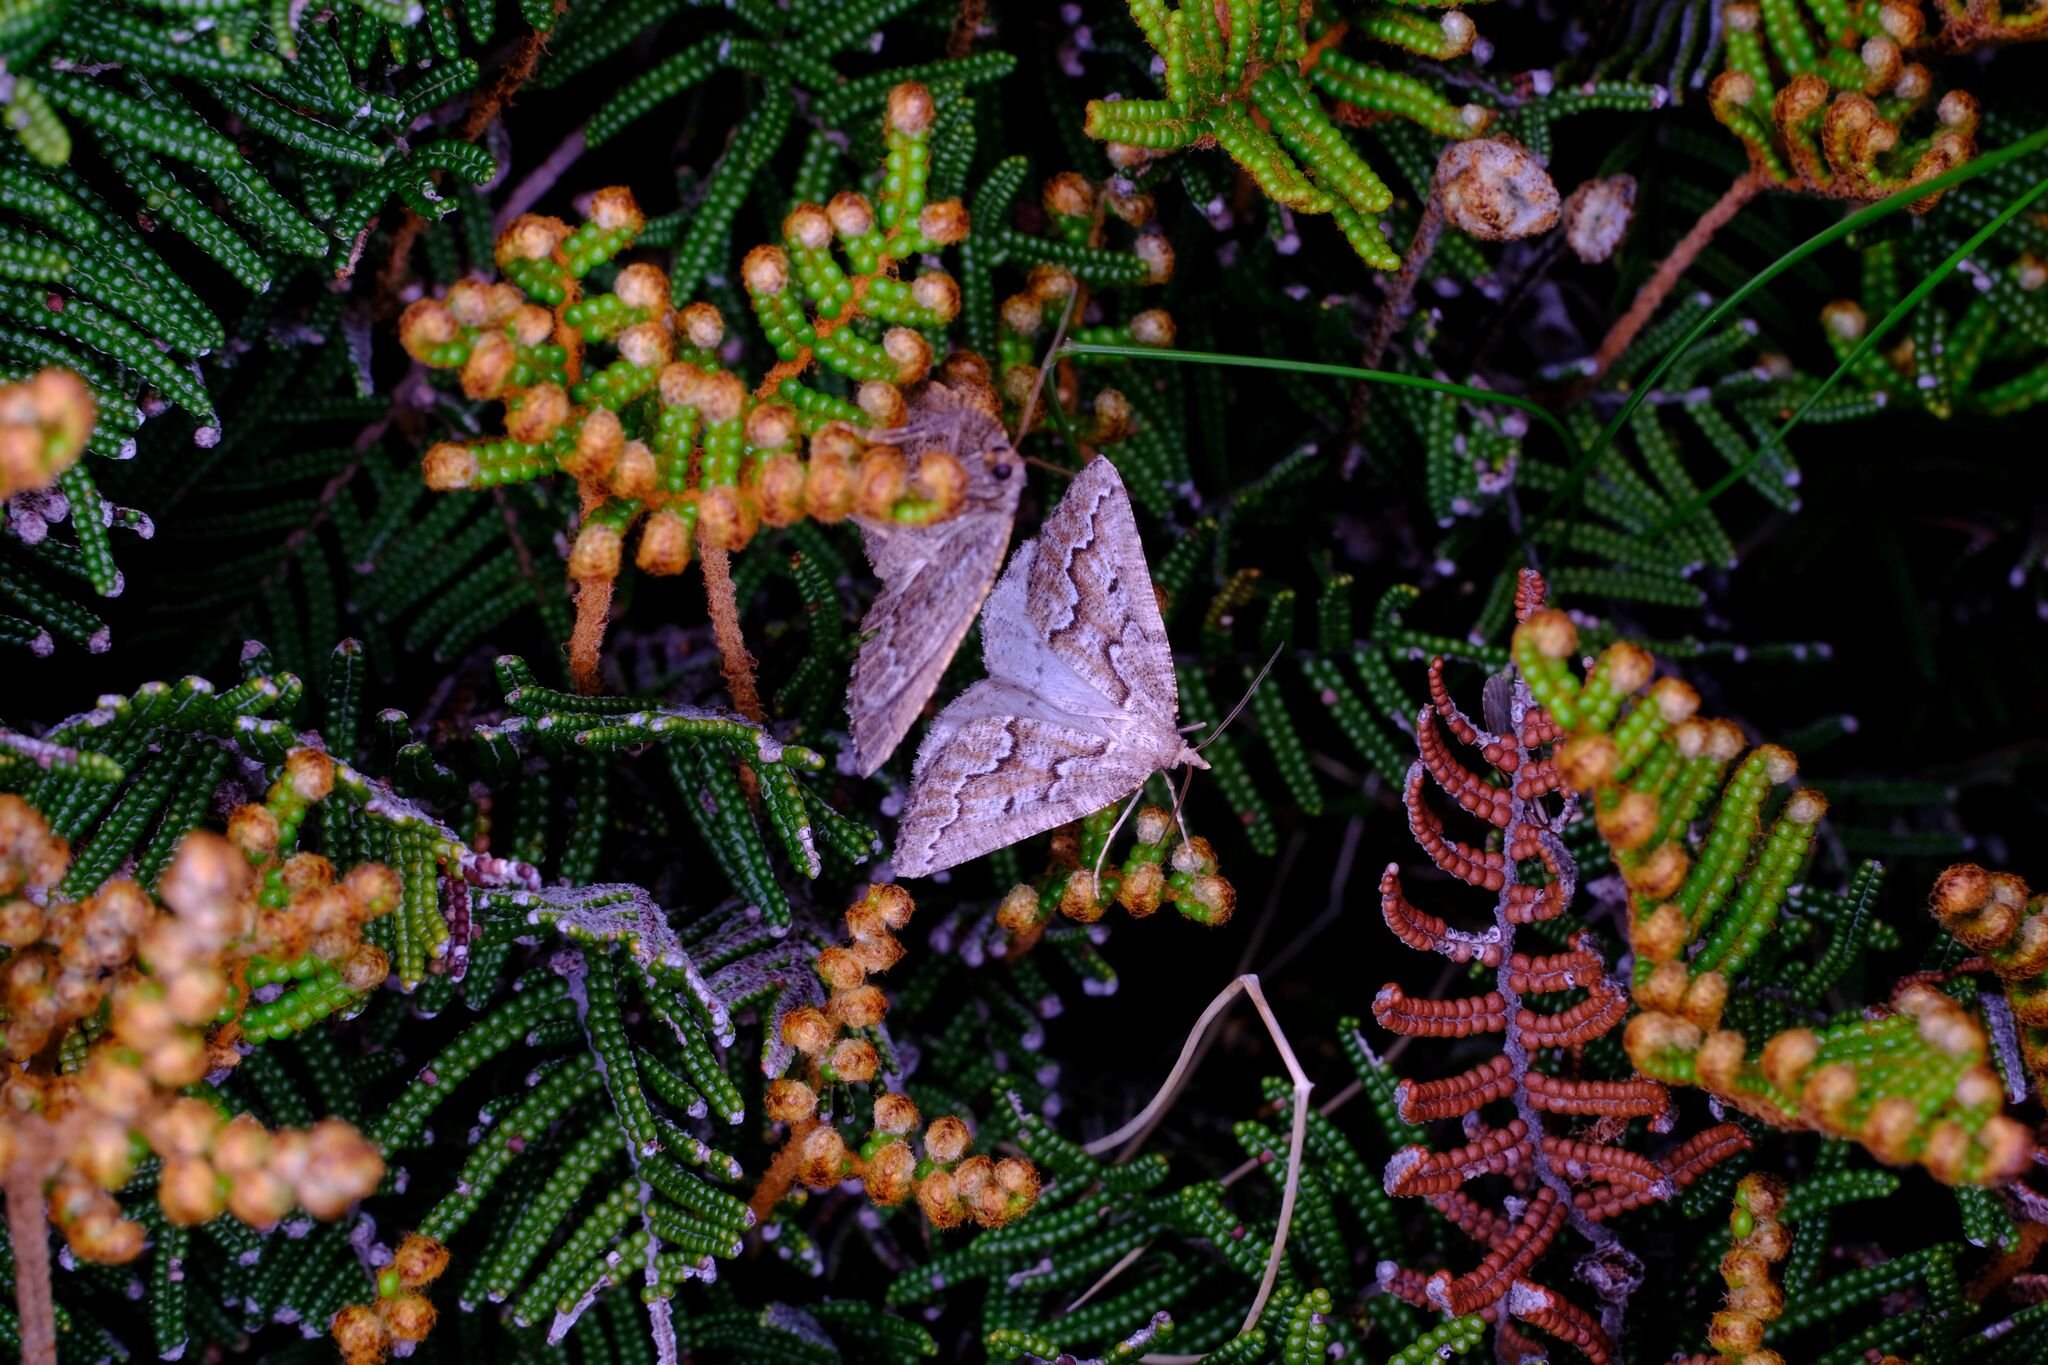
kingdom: Animalia
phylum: Arthropoda
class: Insecta
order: Lepidoptera
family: Geometridae
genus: Hypsitropha
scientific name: Hypsitropha euschema
